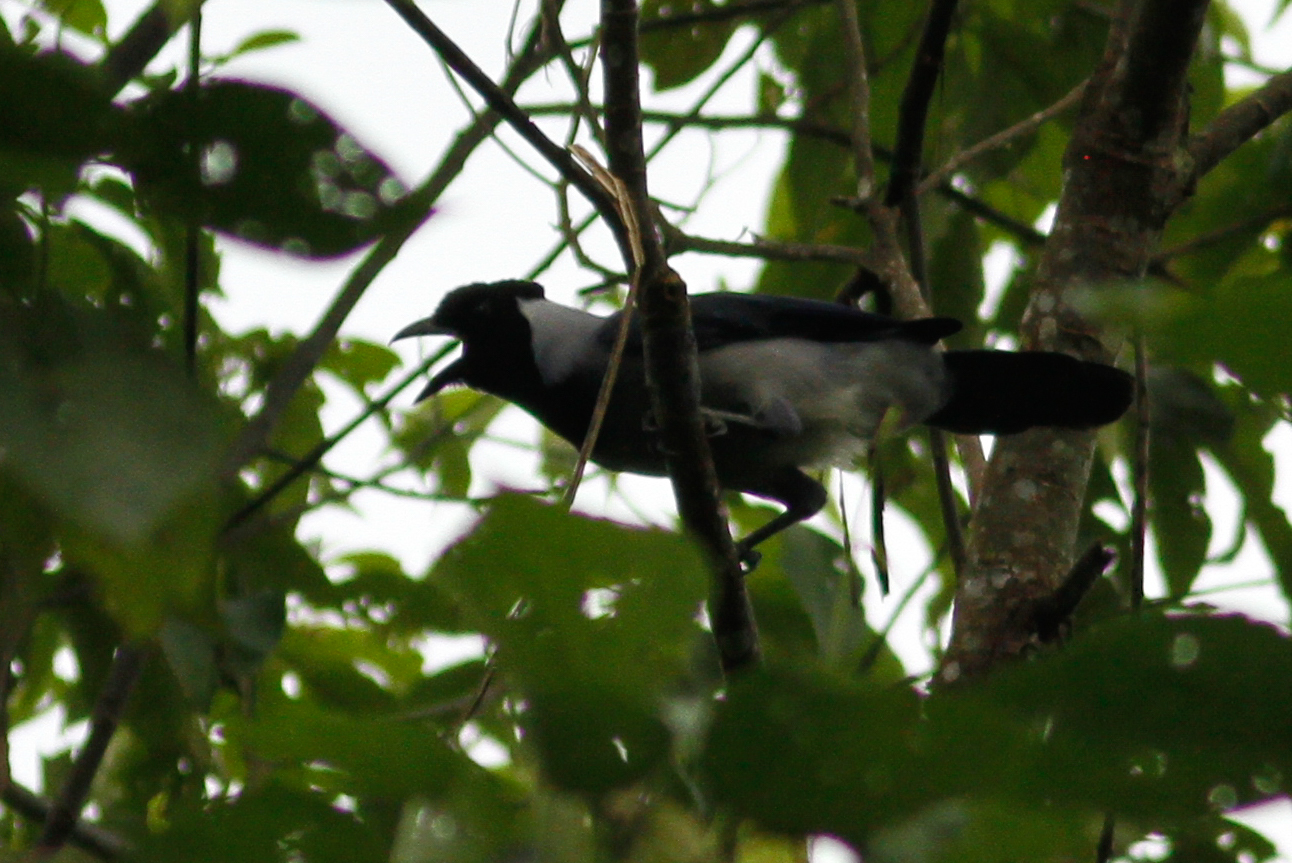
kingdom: Animalia
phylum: Chordata
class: Aves
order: Passeriformes
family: Corvidae
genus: Cyanocorax
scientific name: Cyanocorax violaceus
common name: Violaceous jay
